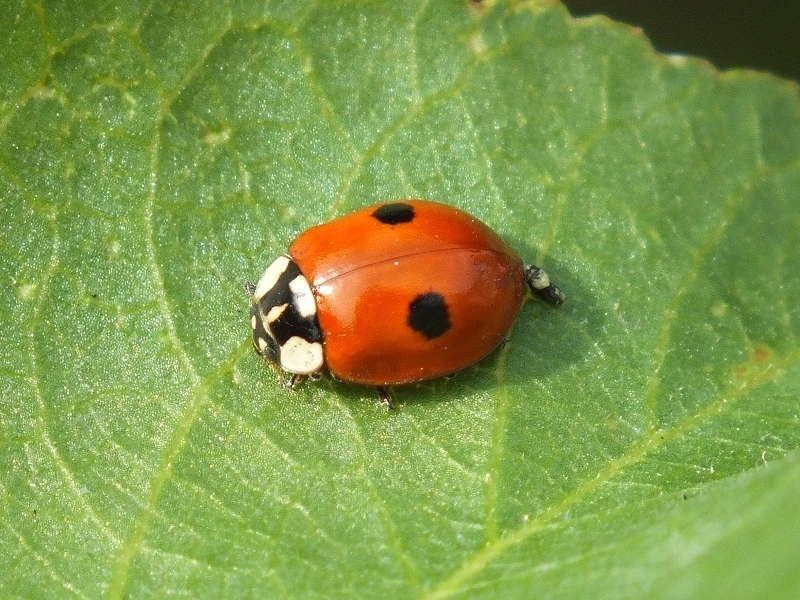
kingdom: Animalia
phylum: Arthropoda
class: Insecta
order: Coleoptera
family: Coccinellidae
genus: Adalia
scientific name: Adalia bipunctata
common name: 2-spot ladybird
